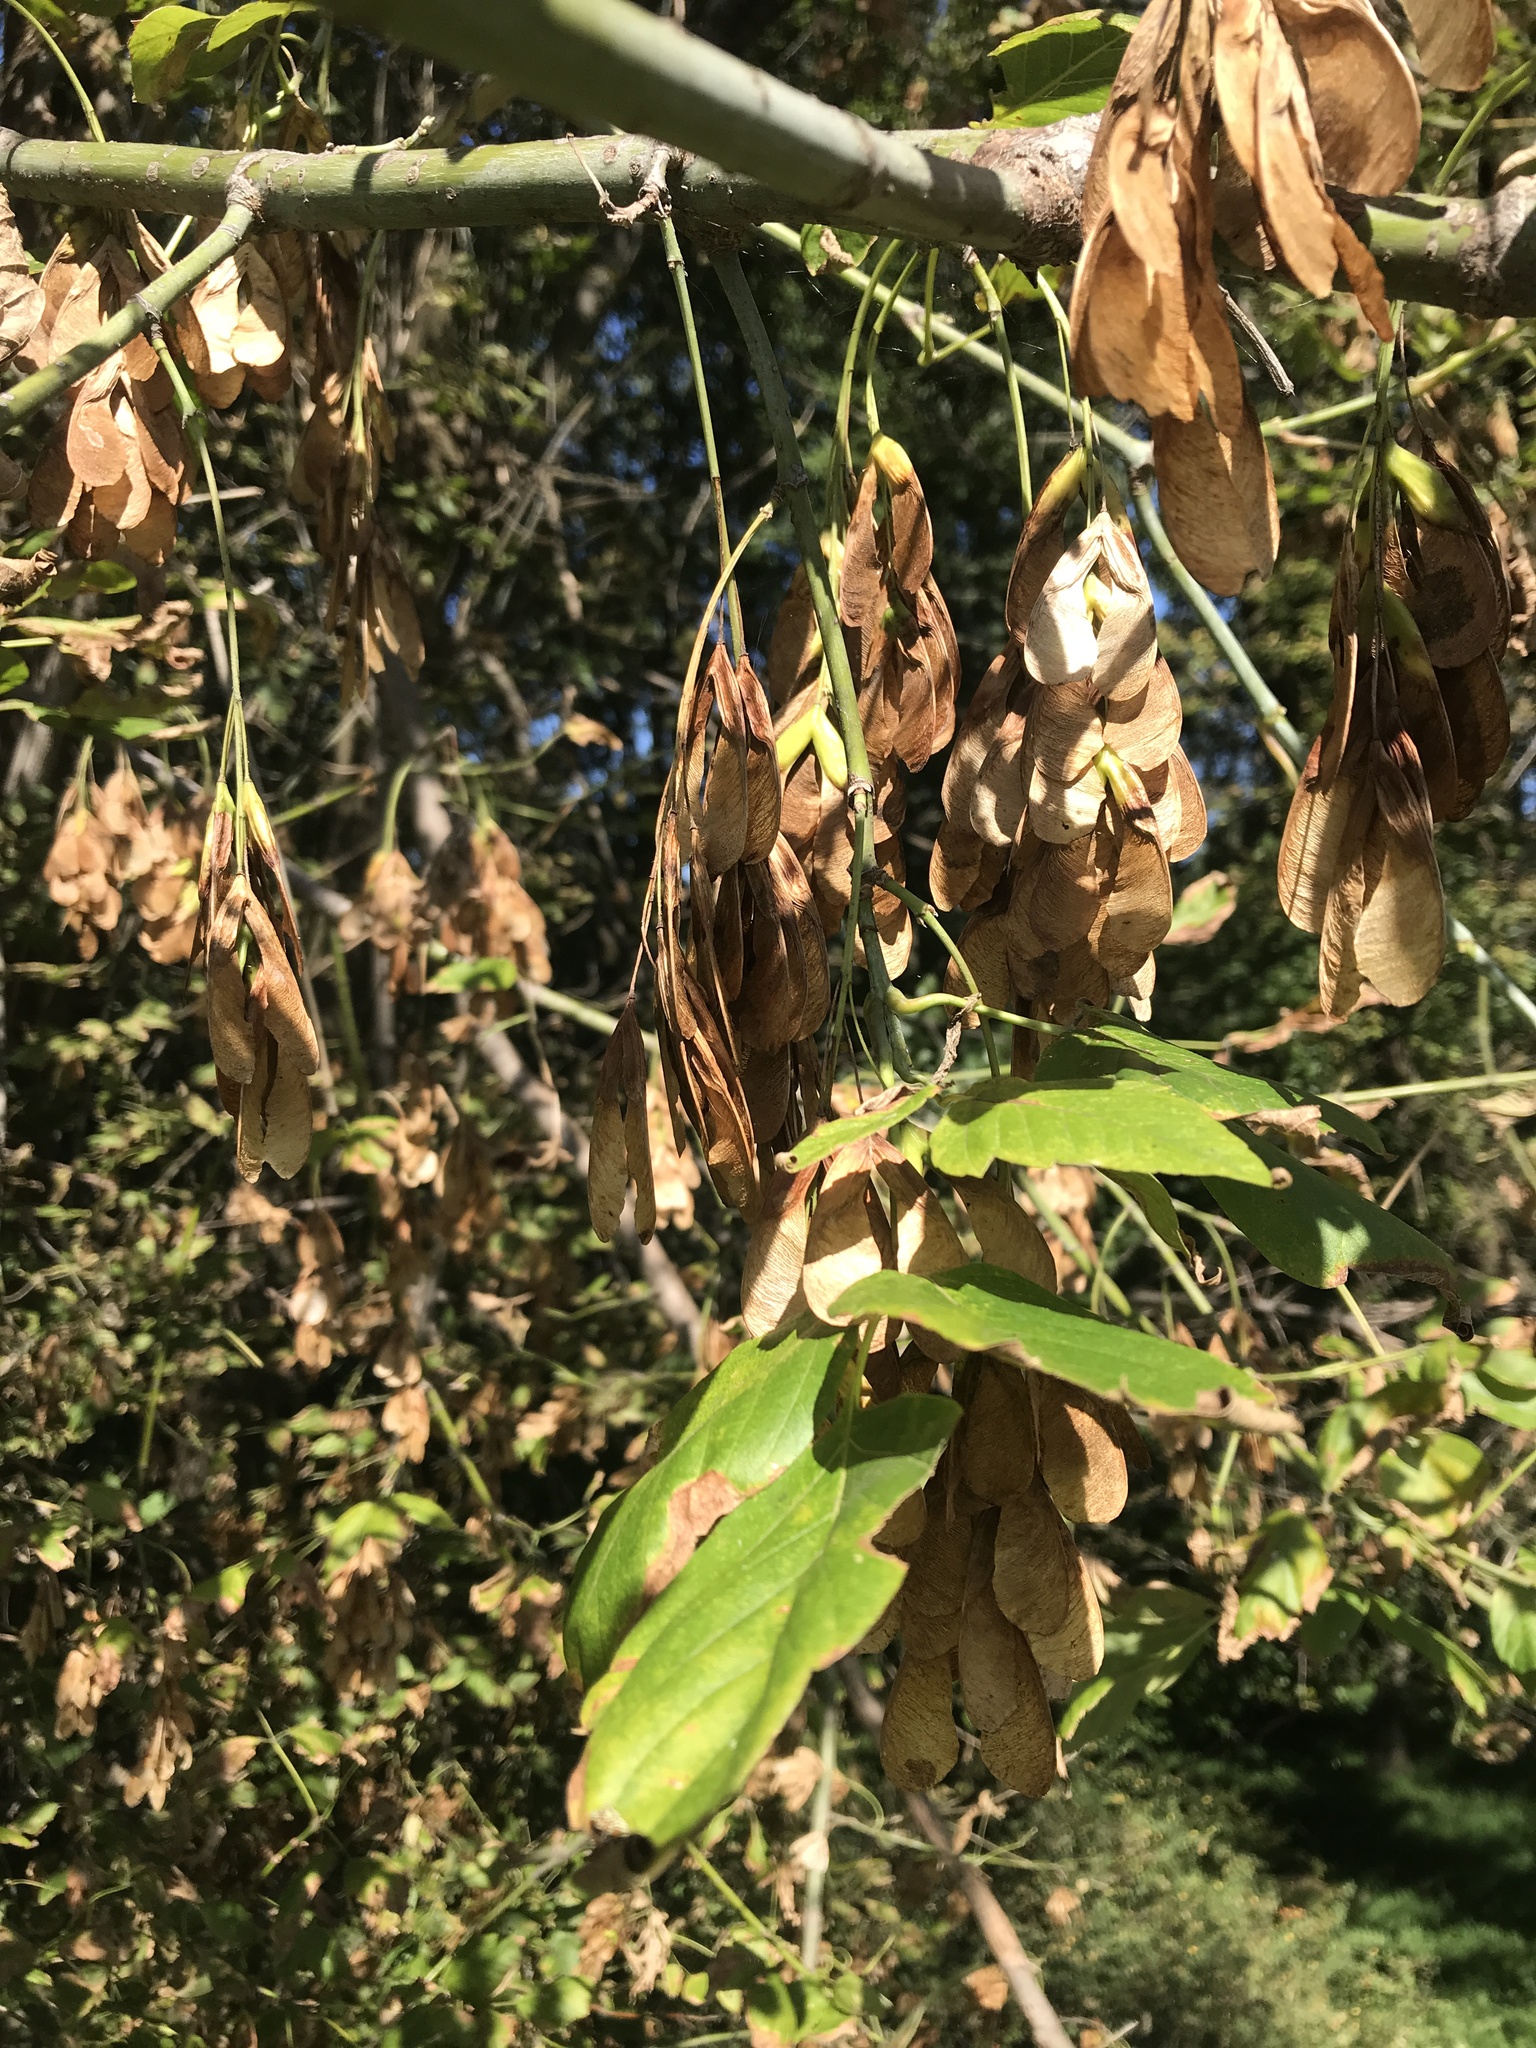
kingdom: Plantae
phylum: Tracheophyta
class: Magnoliopsida
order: Sapindales
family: Sapindaceae
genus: Acer
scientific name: Acer negundo
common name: Ashleaf maple
